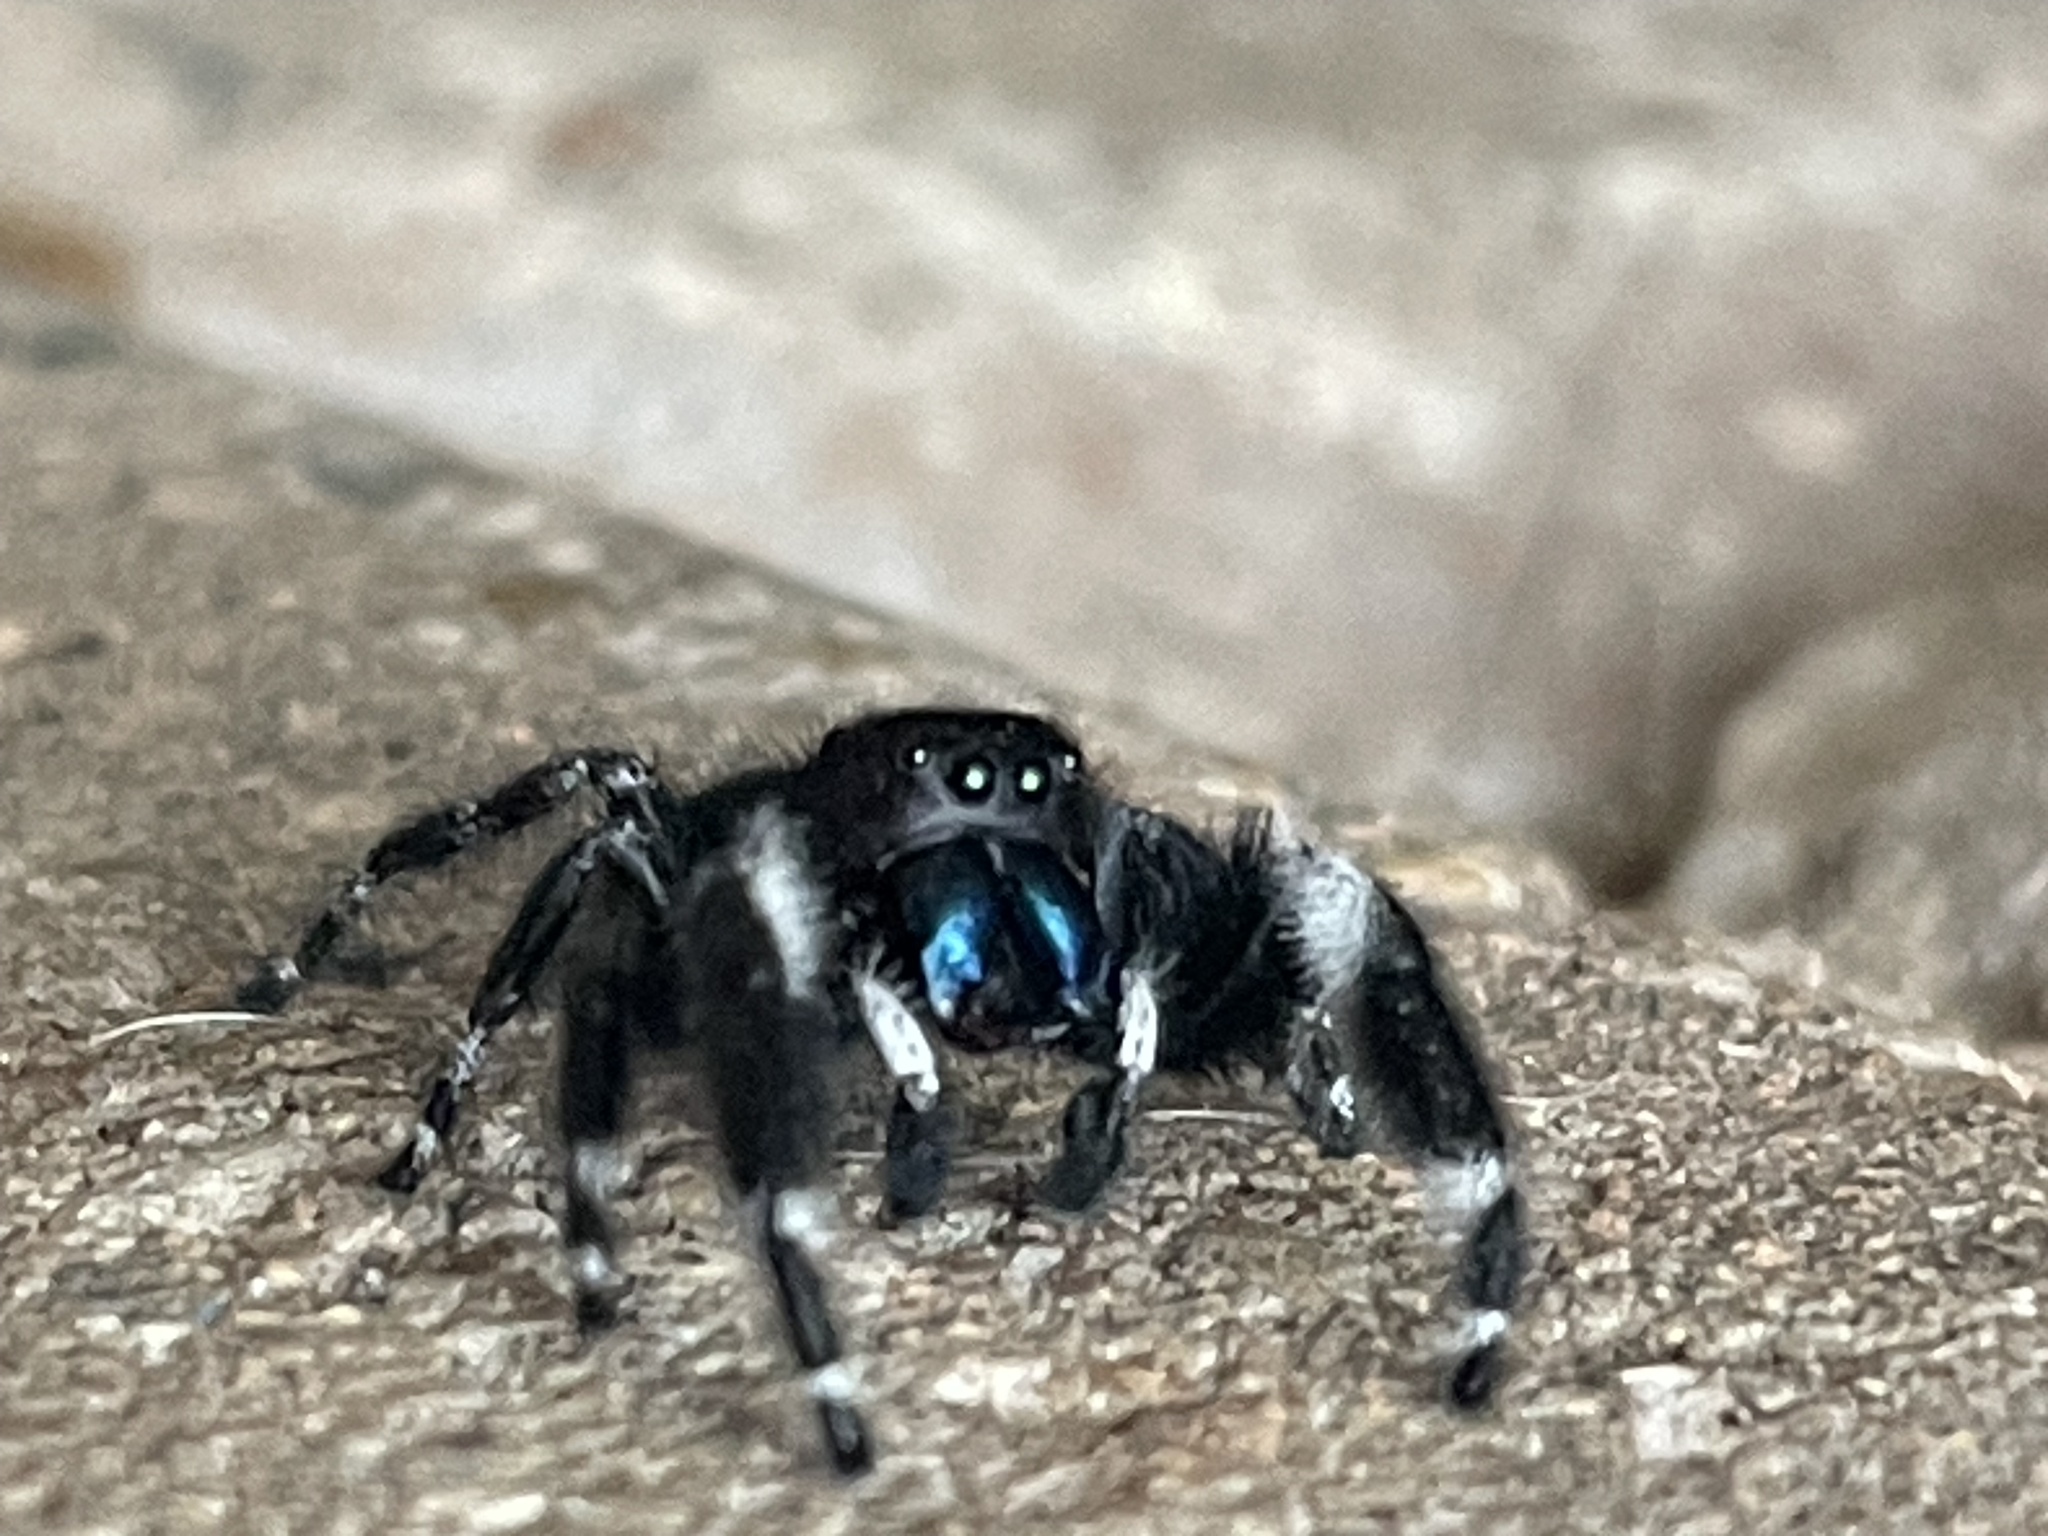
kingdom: Animalia
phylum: Arthropoda
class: Arachnida
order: Araneae
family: Salticidae
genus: Phidippus
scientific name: Phidippus audax
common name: Bold jumper
